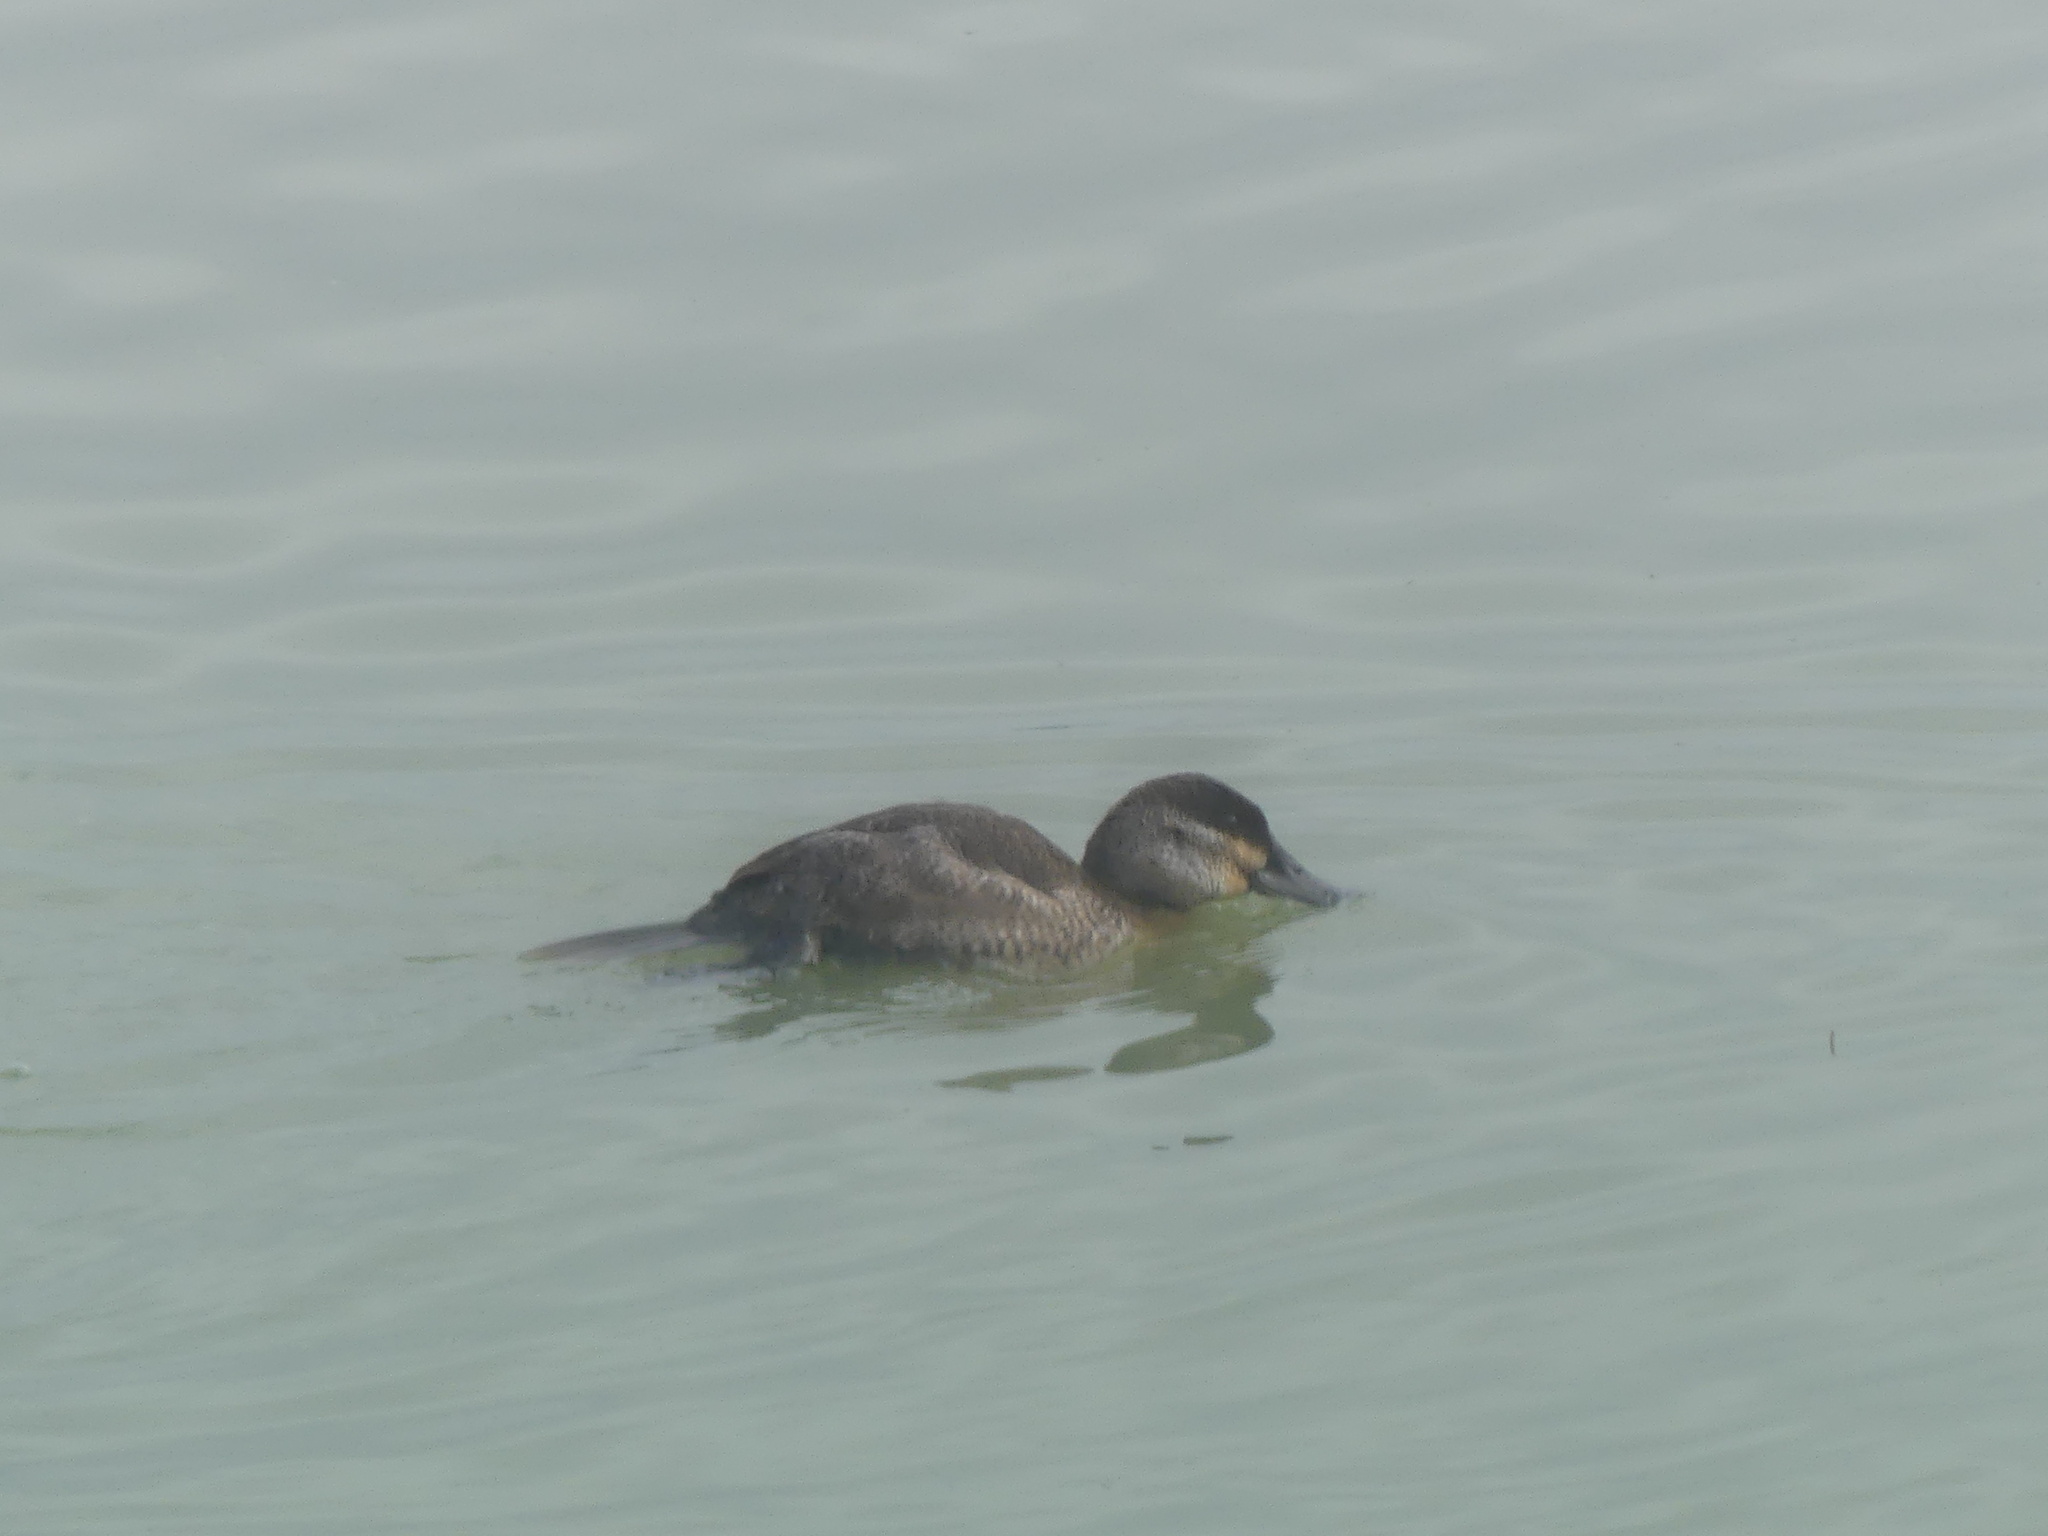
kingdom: Animalia
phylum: Chordata
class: Aves
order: Anseriformes
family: Anatidae
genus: Oxyura
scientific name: Oxyura jamaicensis
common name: Ruddy duck
